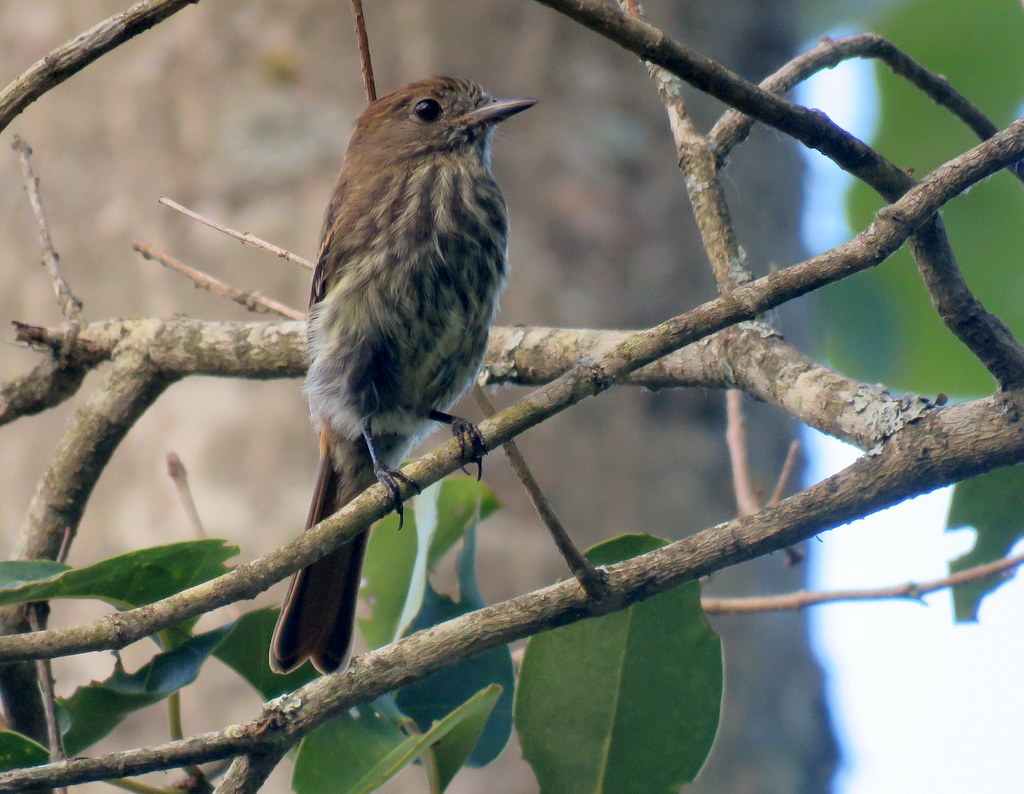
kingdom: Animalia
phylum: Chordata
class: Aves
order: Passeriformes
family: Tyrannidae
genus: Knipolegus
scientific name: Knipolegus cyanirostris
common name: Blue-billed black tyrant
